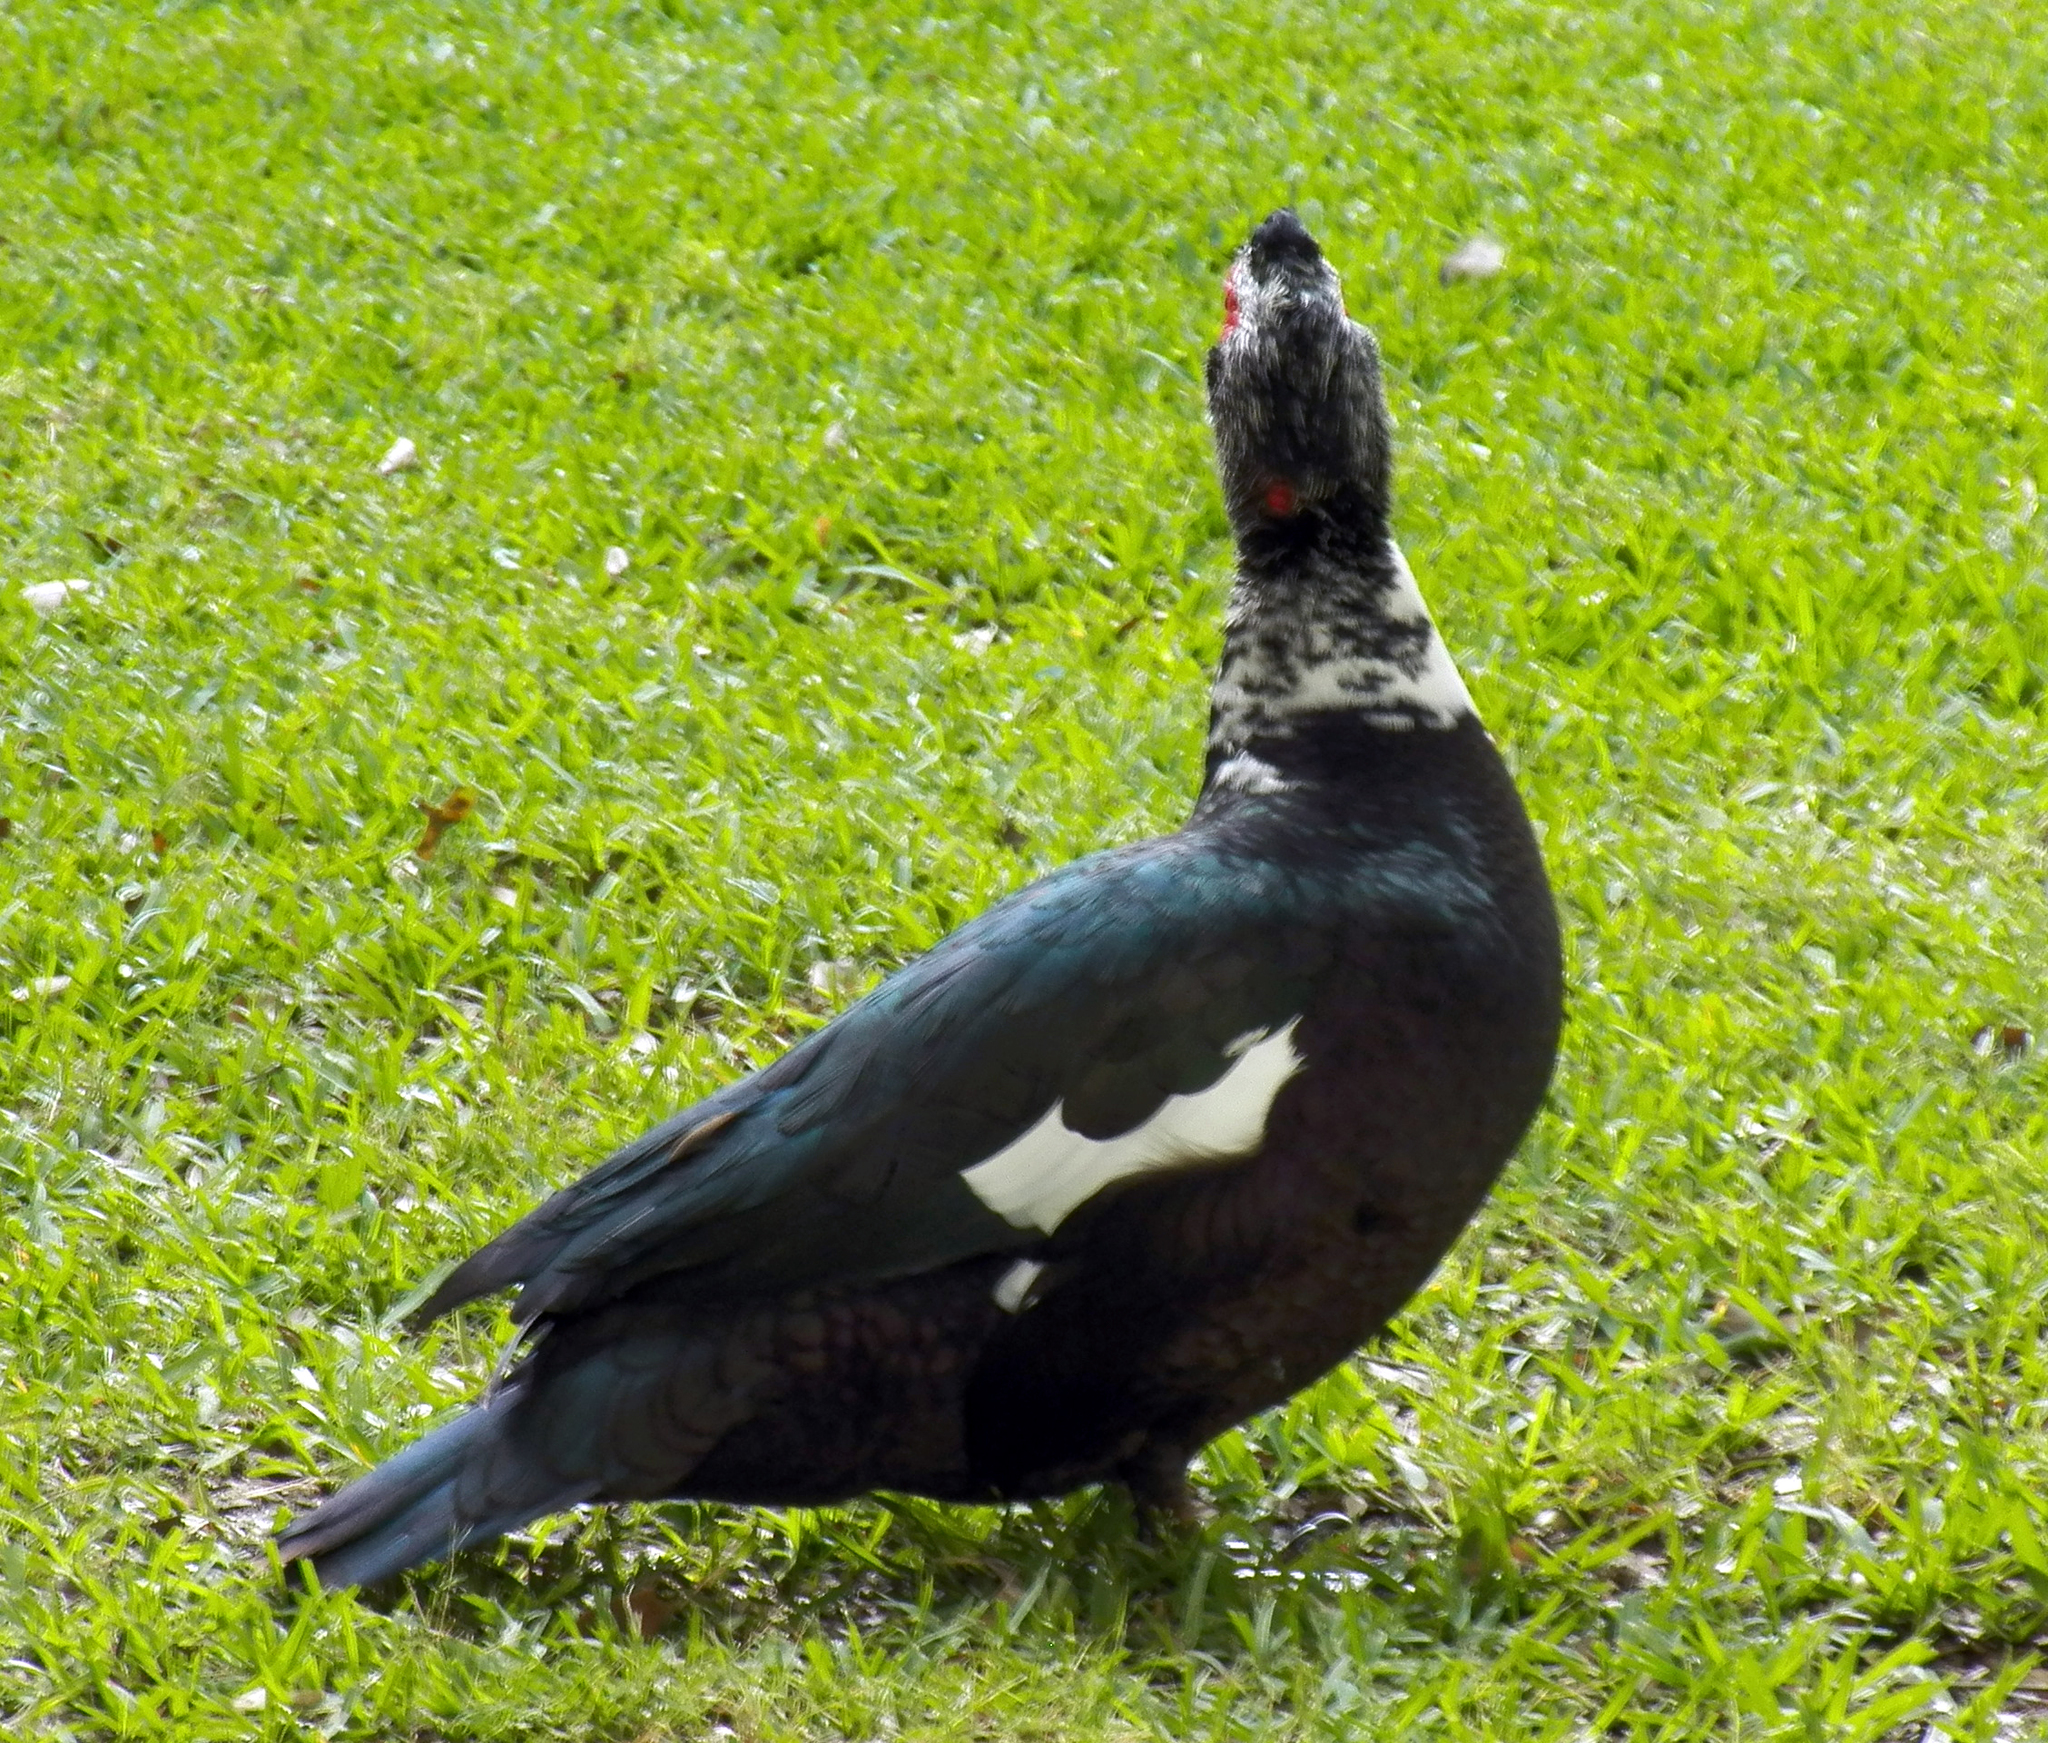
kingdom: Animalia
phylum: Chordata
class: Aves
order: Anseriformes
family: Anatidae
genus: Cairina
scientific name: Cairina moschata
